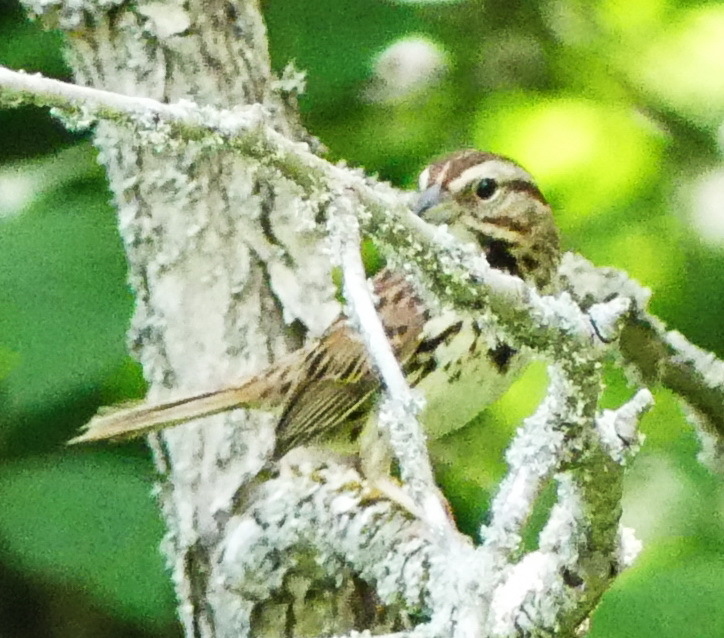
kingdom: Animalia
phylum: Chordata
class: Aves
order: Passeriformes
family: Passerellidae
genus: Melospiza
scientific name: Melospiza melodia
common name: Song sparrow
